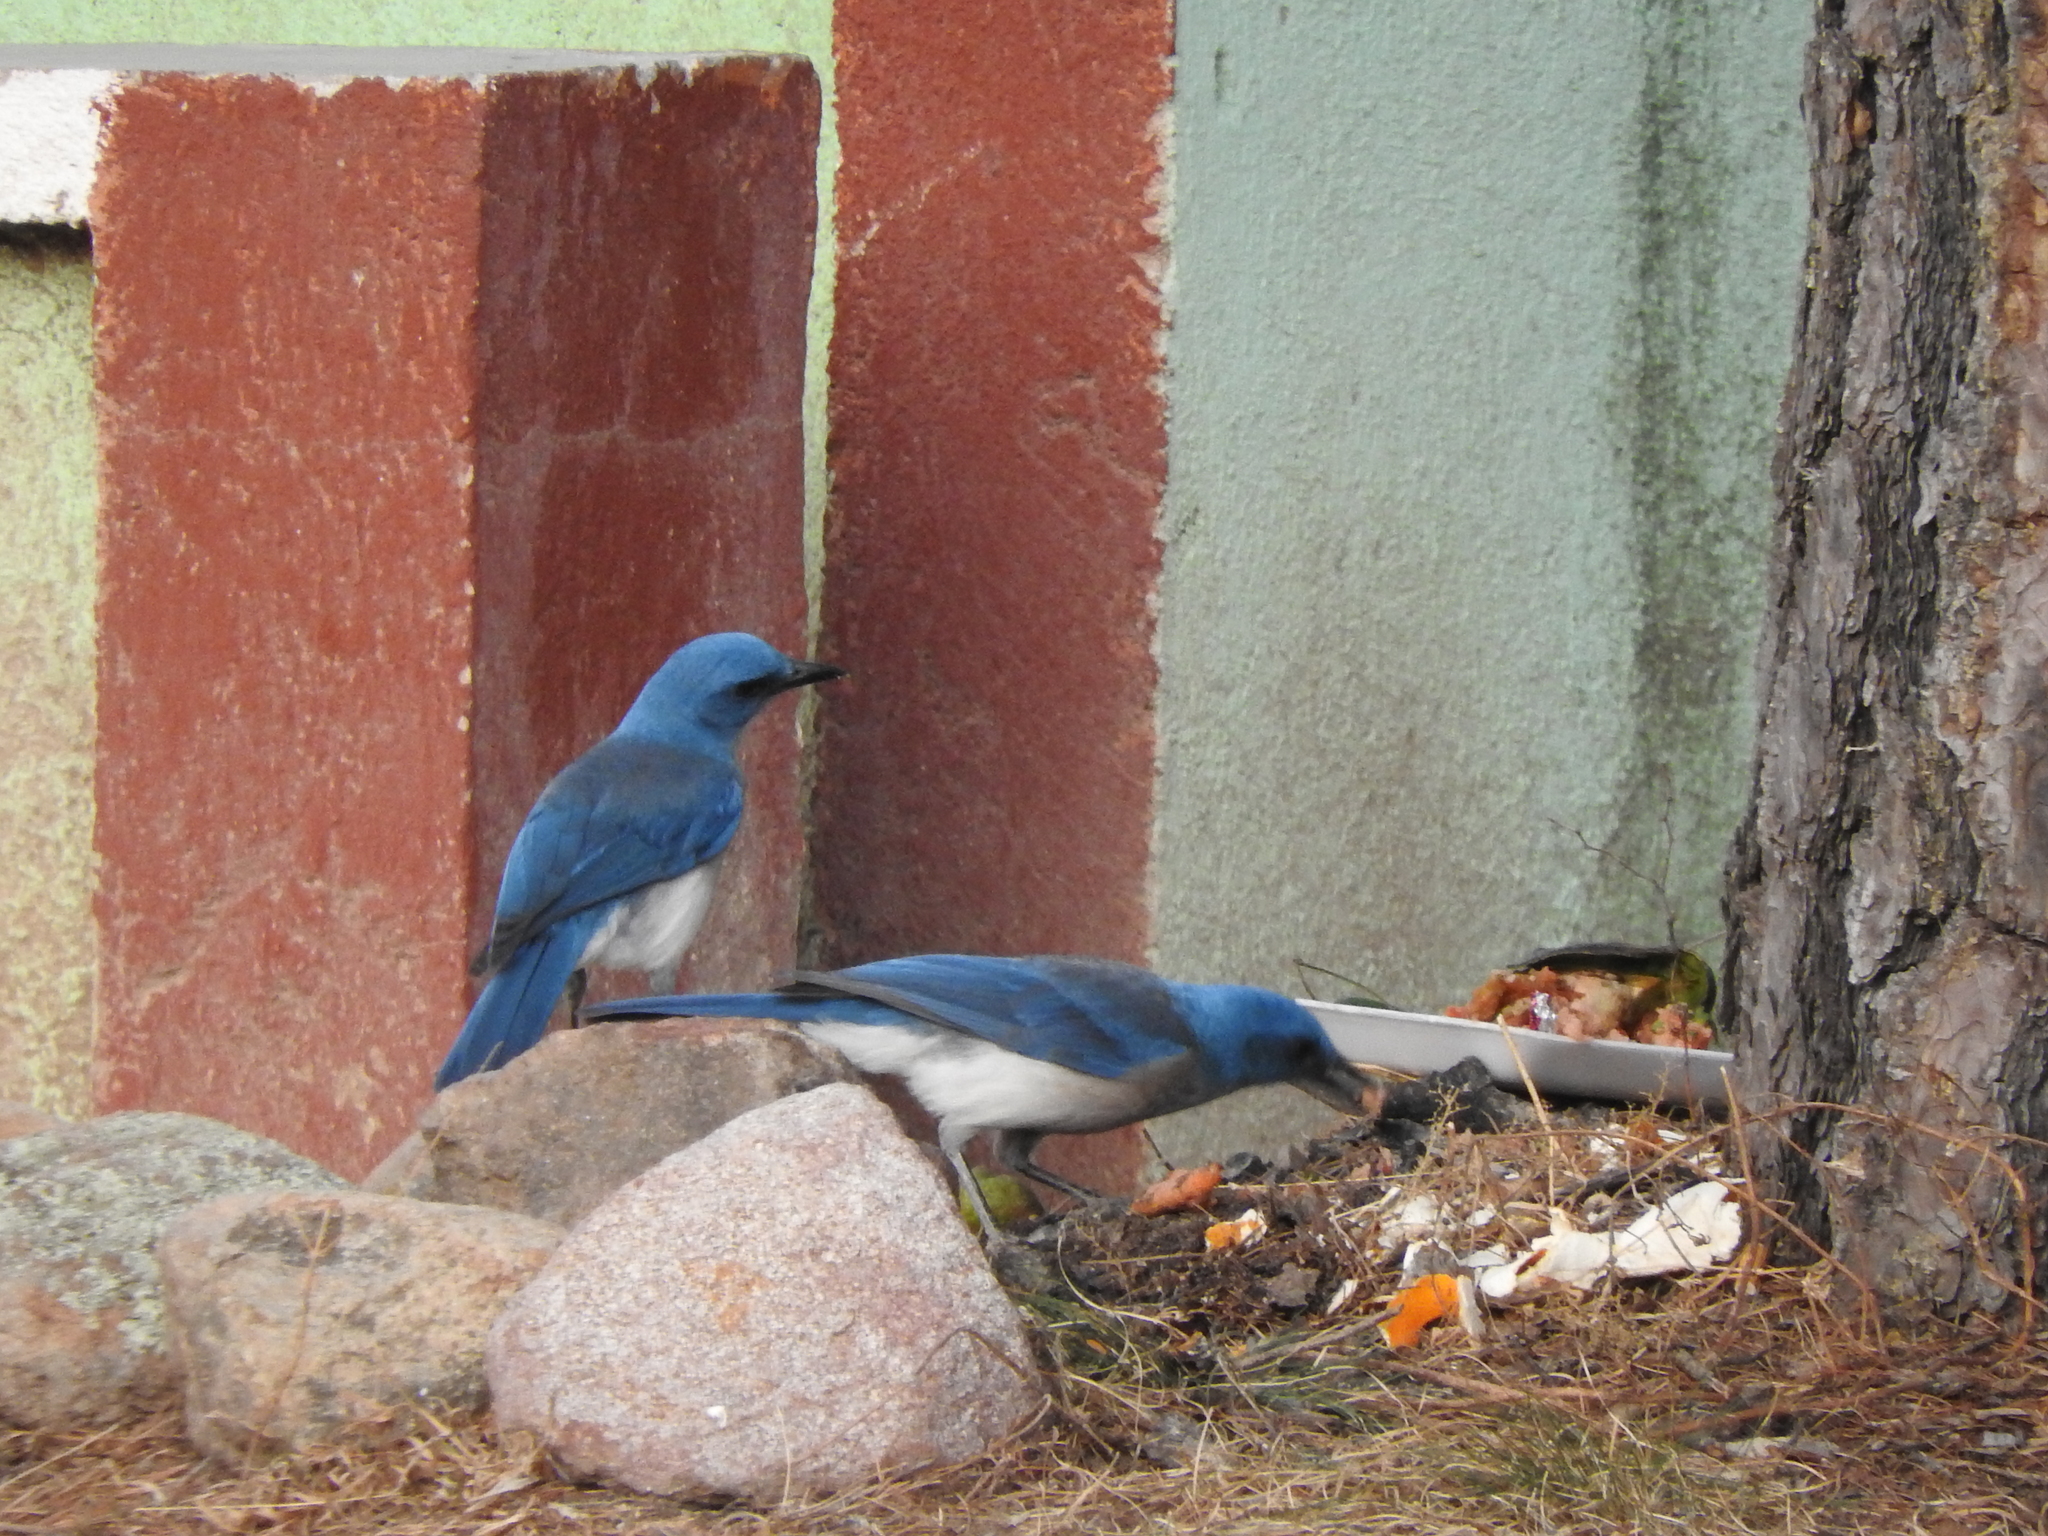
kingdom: Animalia
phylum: Chordata
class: Aves
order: Passeriformes
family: Corvidae
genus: Aphelocoma
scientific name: Aphelocoma wollweberi
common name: Mexican jay
